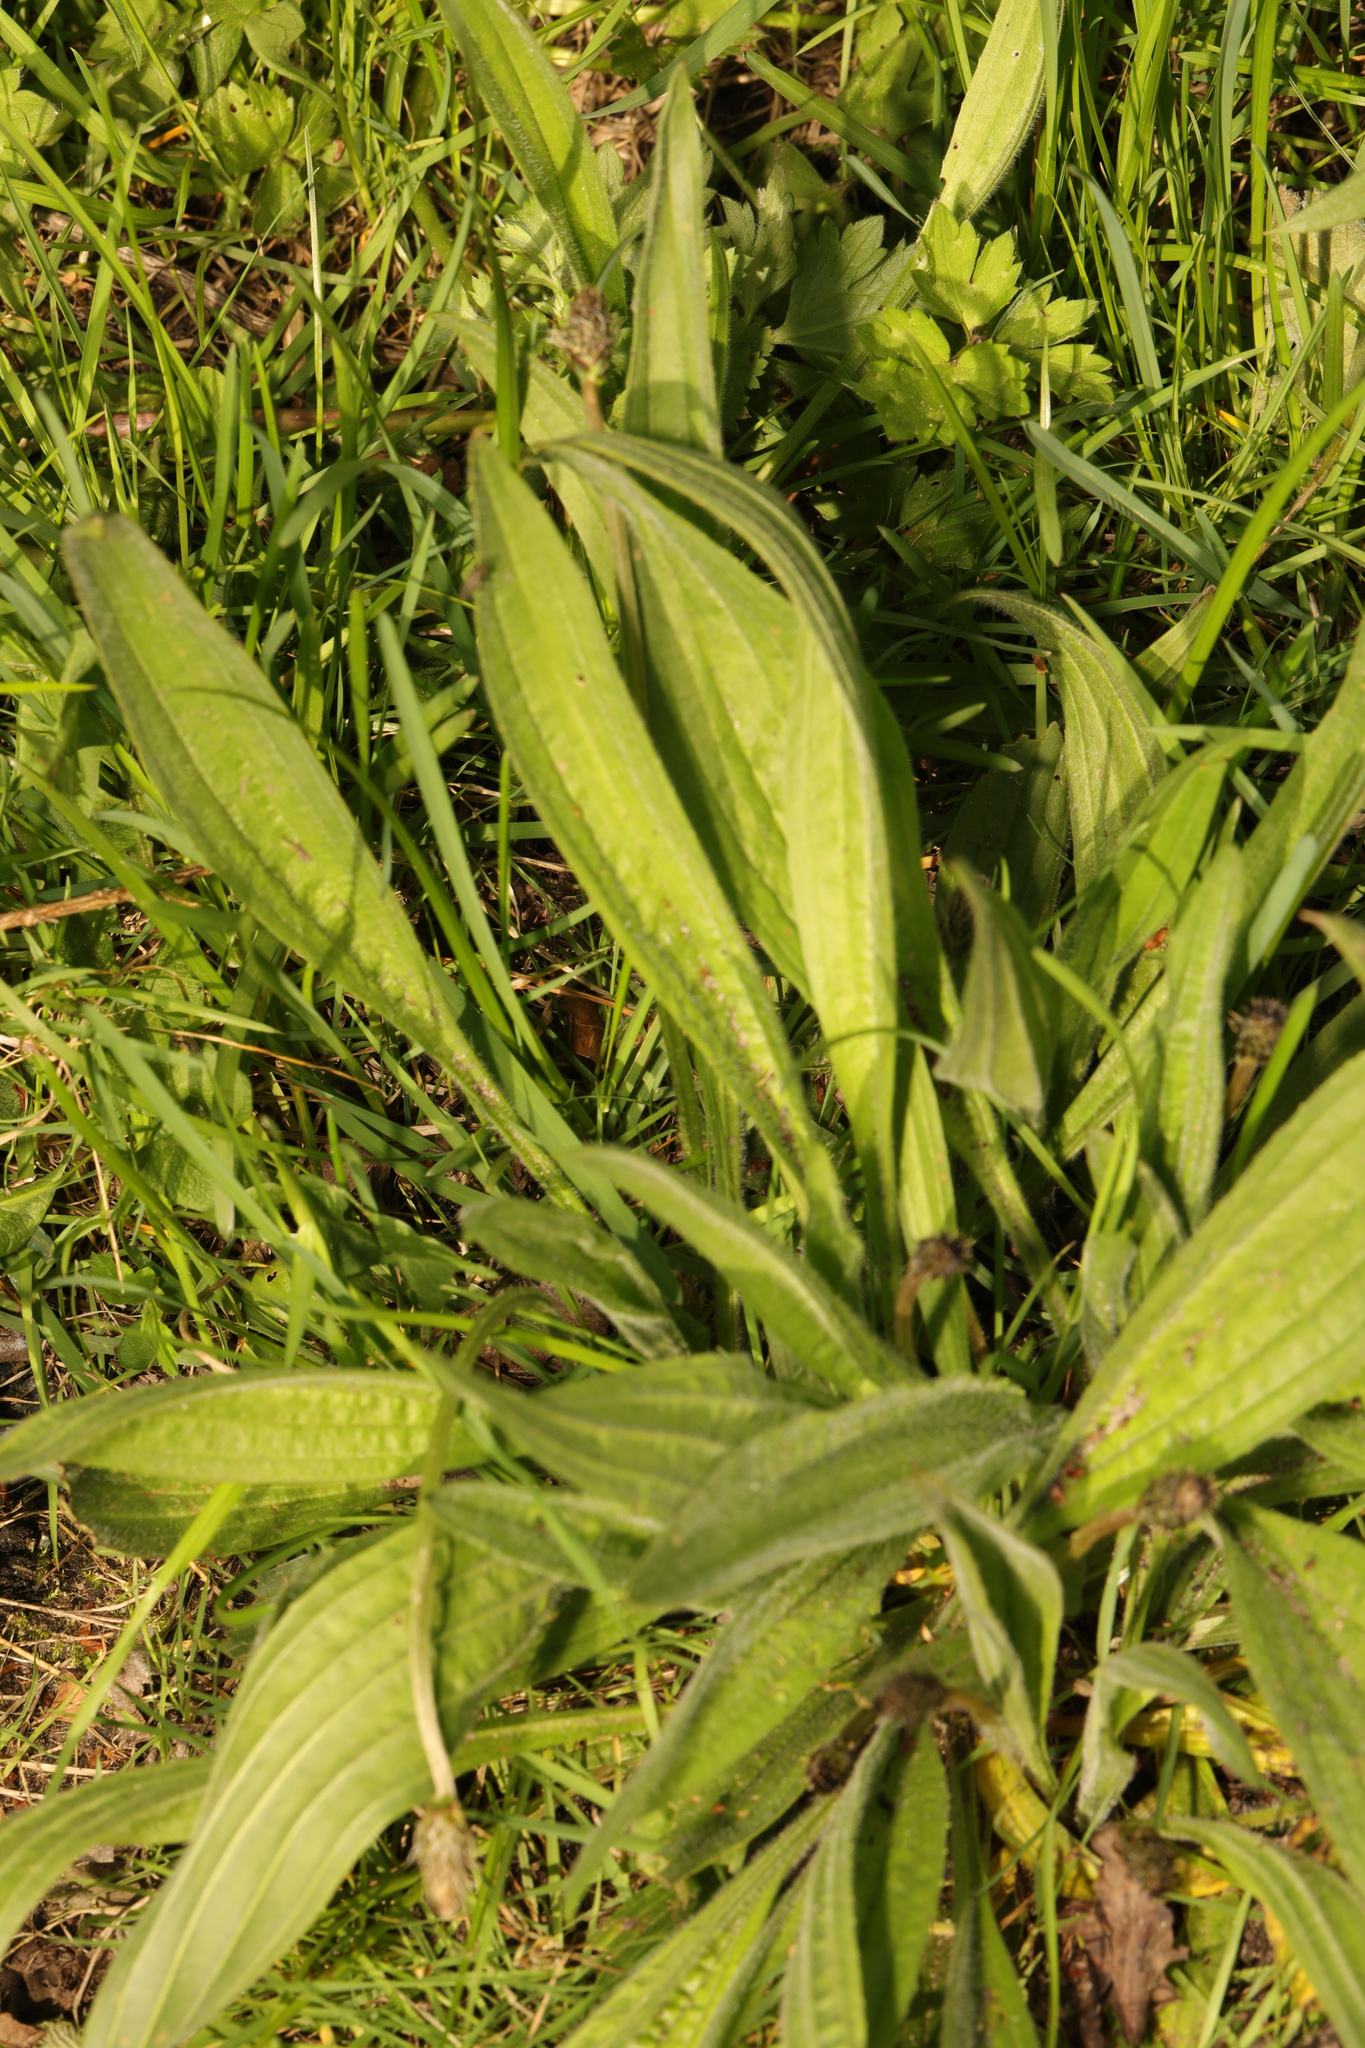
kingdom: Plantae
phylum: Tracheophyta
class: Magnoliopsida
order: Lamiales
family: Plantaginaceae
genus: Plantago
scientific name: Plantago lanceolata
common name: Ribwort plantain
